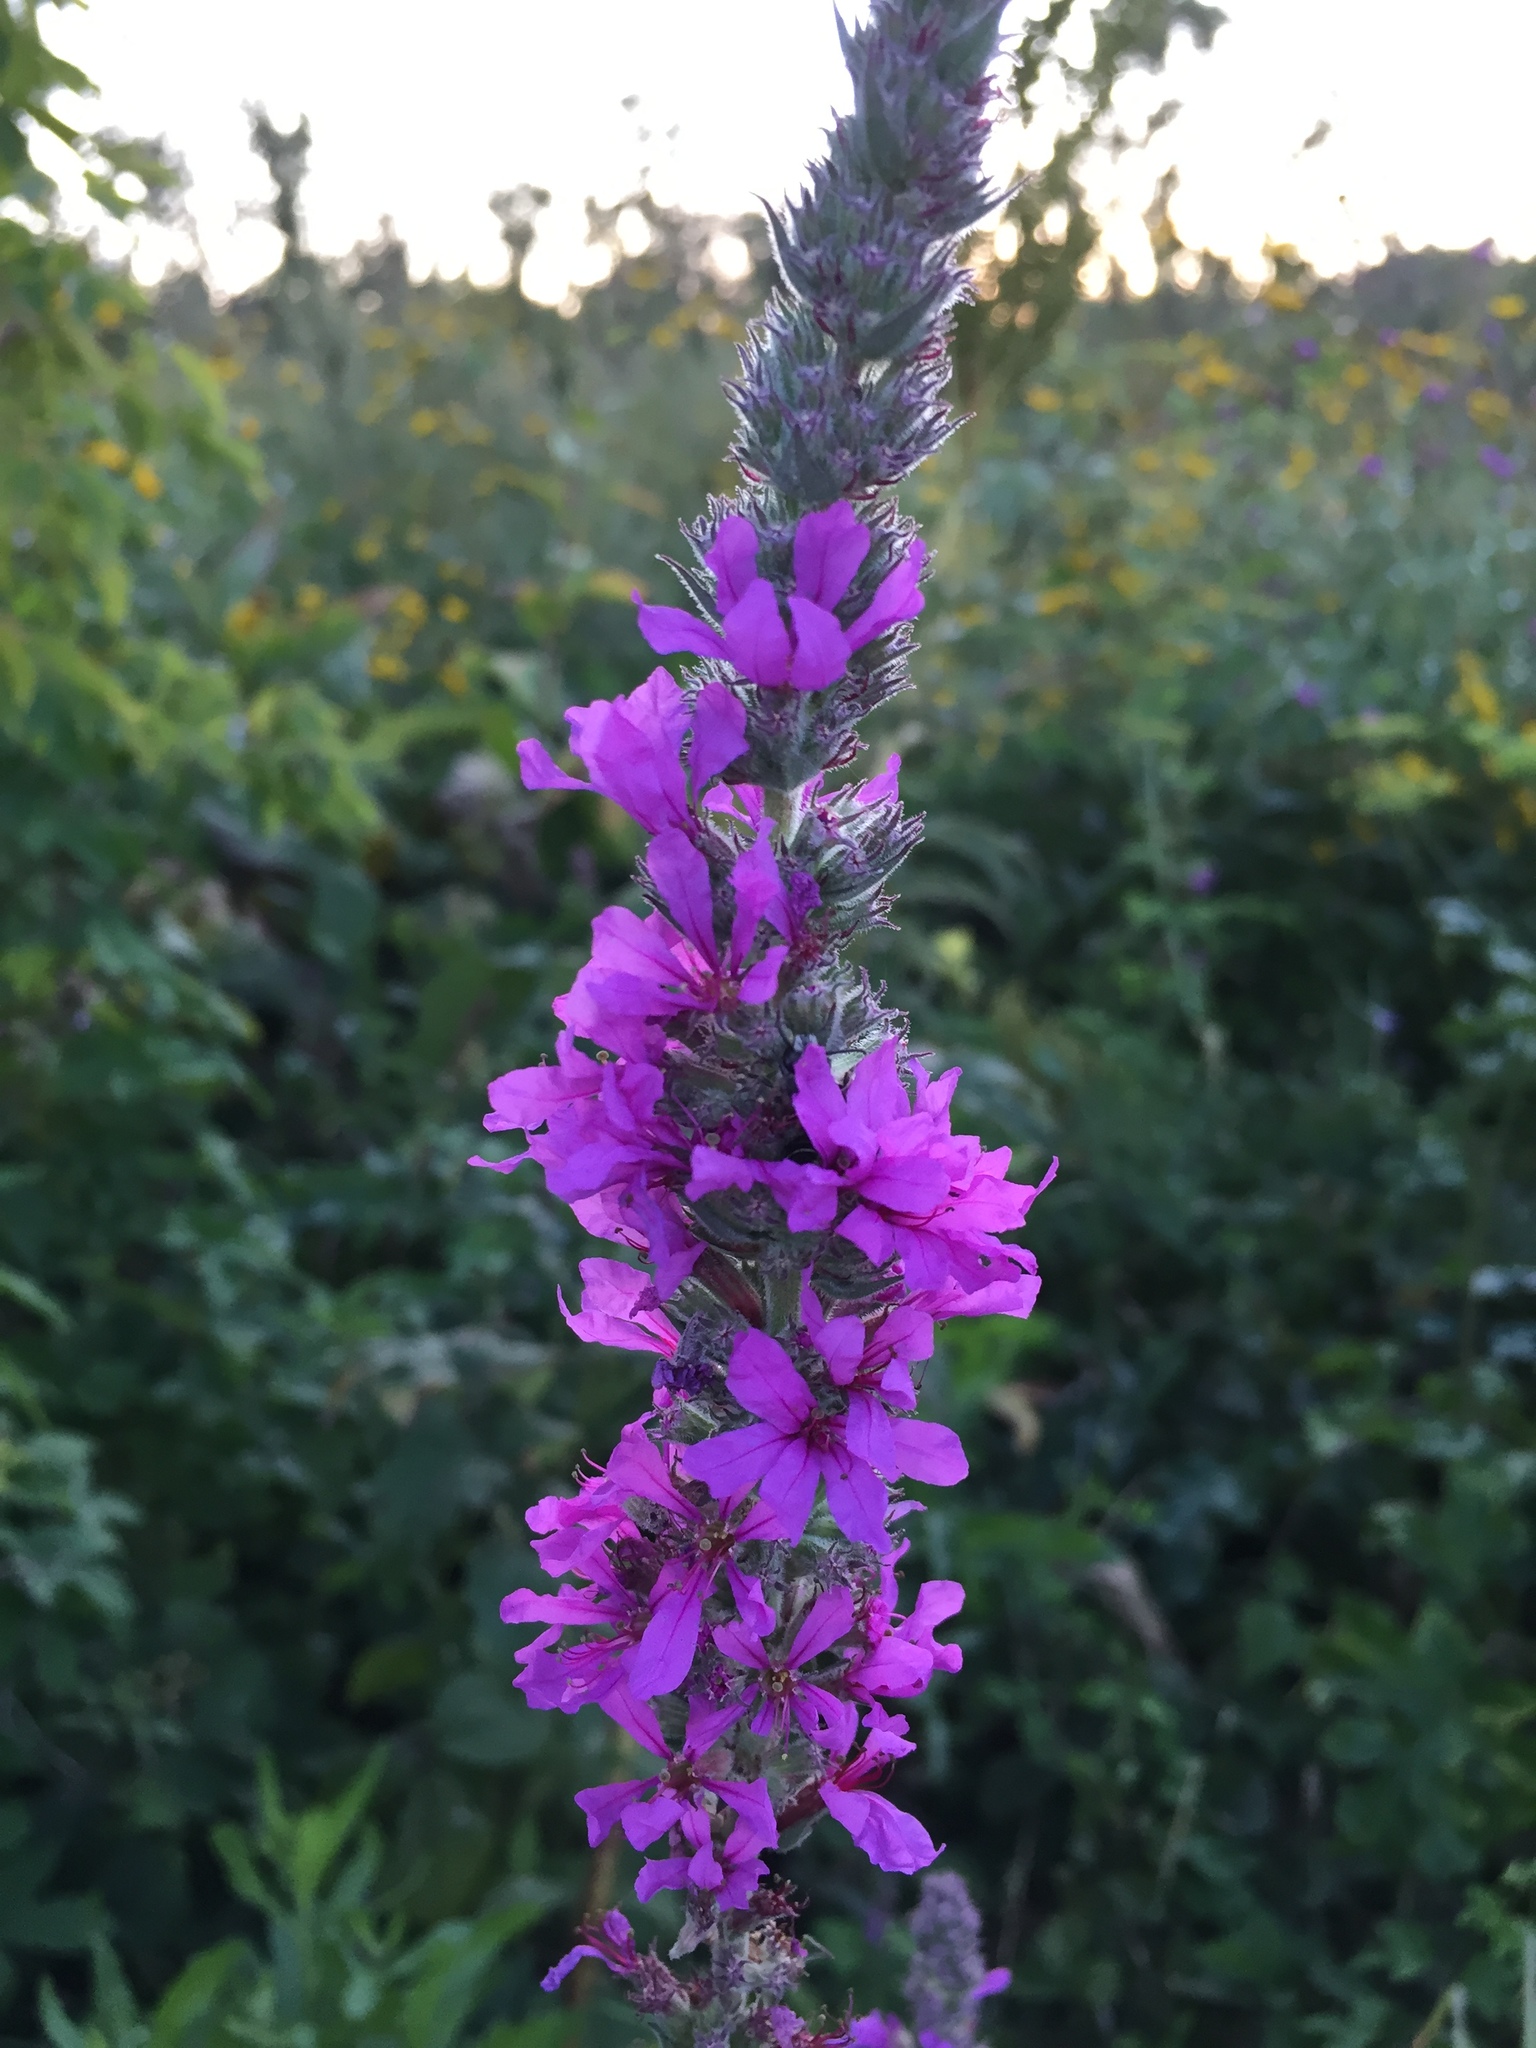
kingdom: Plantae
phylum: Tracheophyta
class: Magnoliopsida
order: Myrtales
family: Lythraceae
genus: Lythrum
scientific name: Lythrum salicaria
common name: Purple loosestrife
